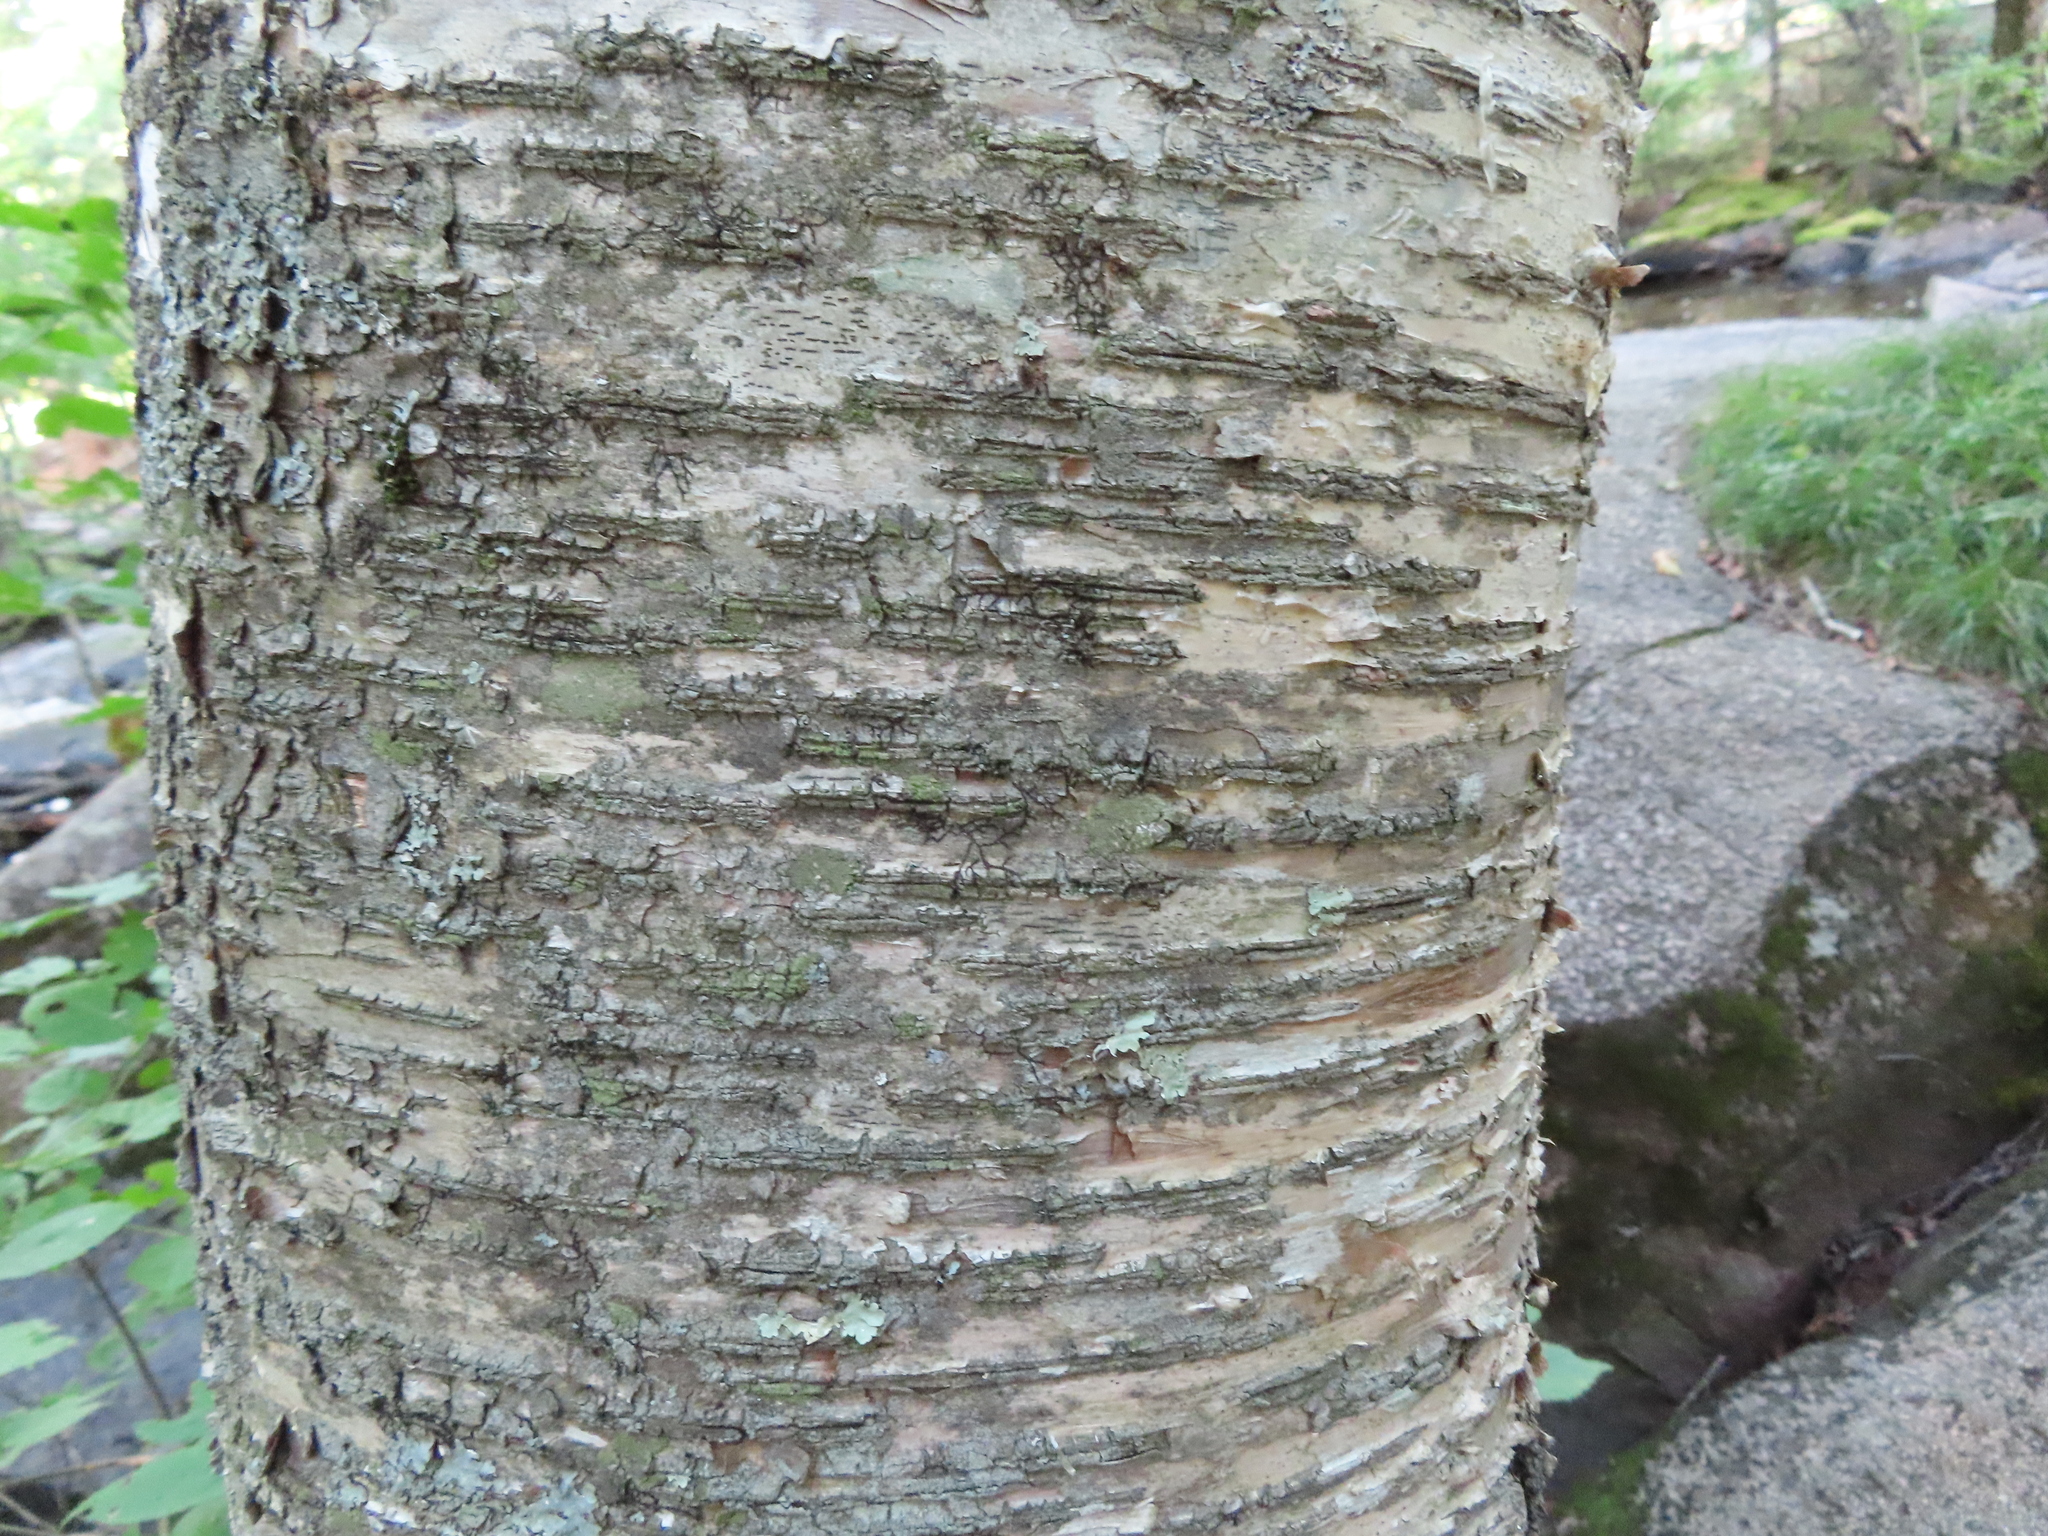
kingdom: Plantae
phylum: Tracheophyta
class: Magnoliopsida
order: Fagales
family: Betulaceae
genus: Betula
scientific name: Betula alleghaniensis
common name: Yellow birch
